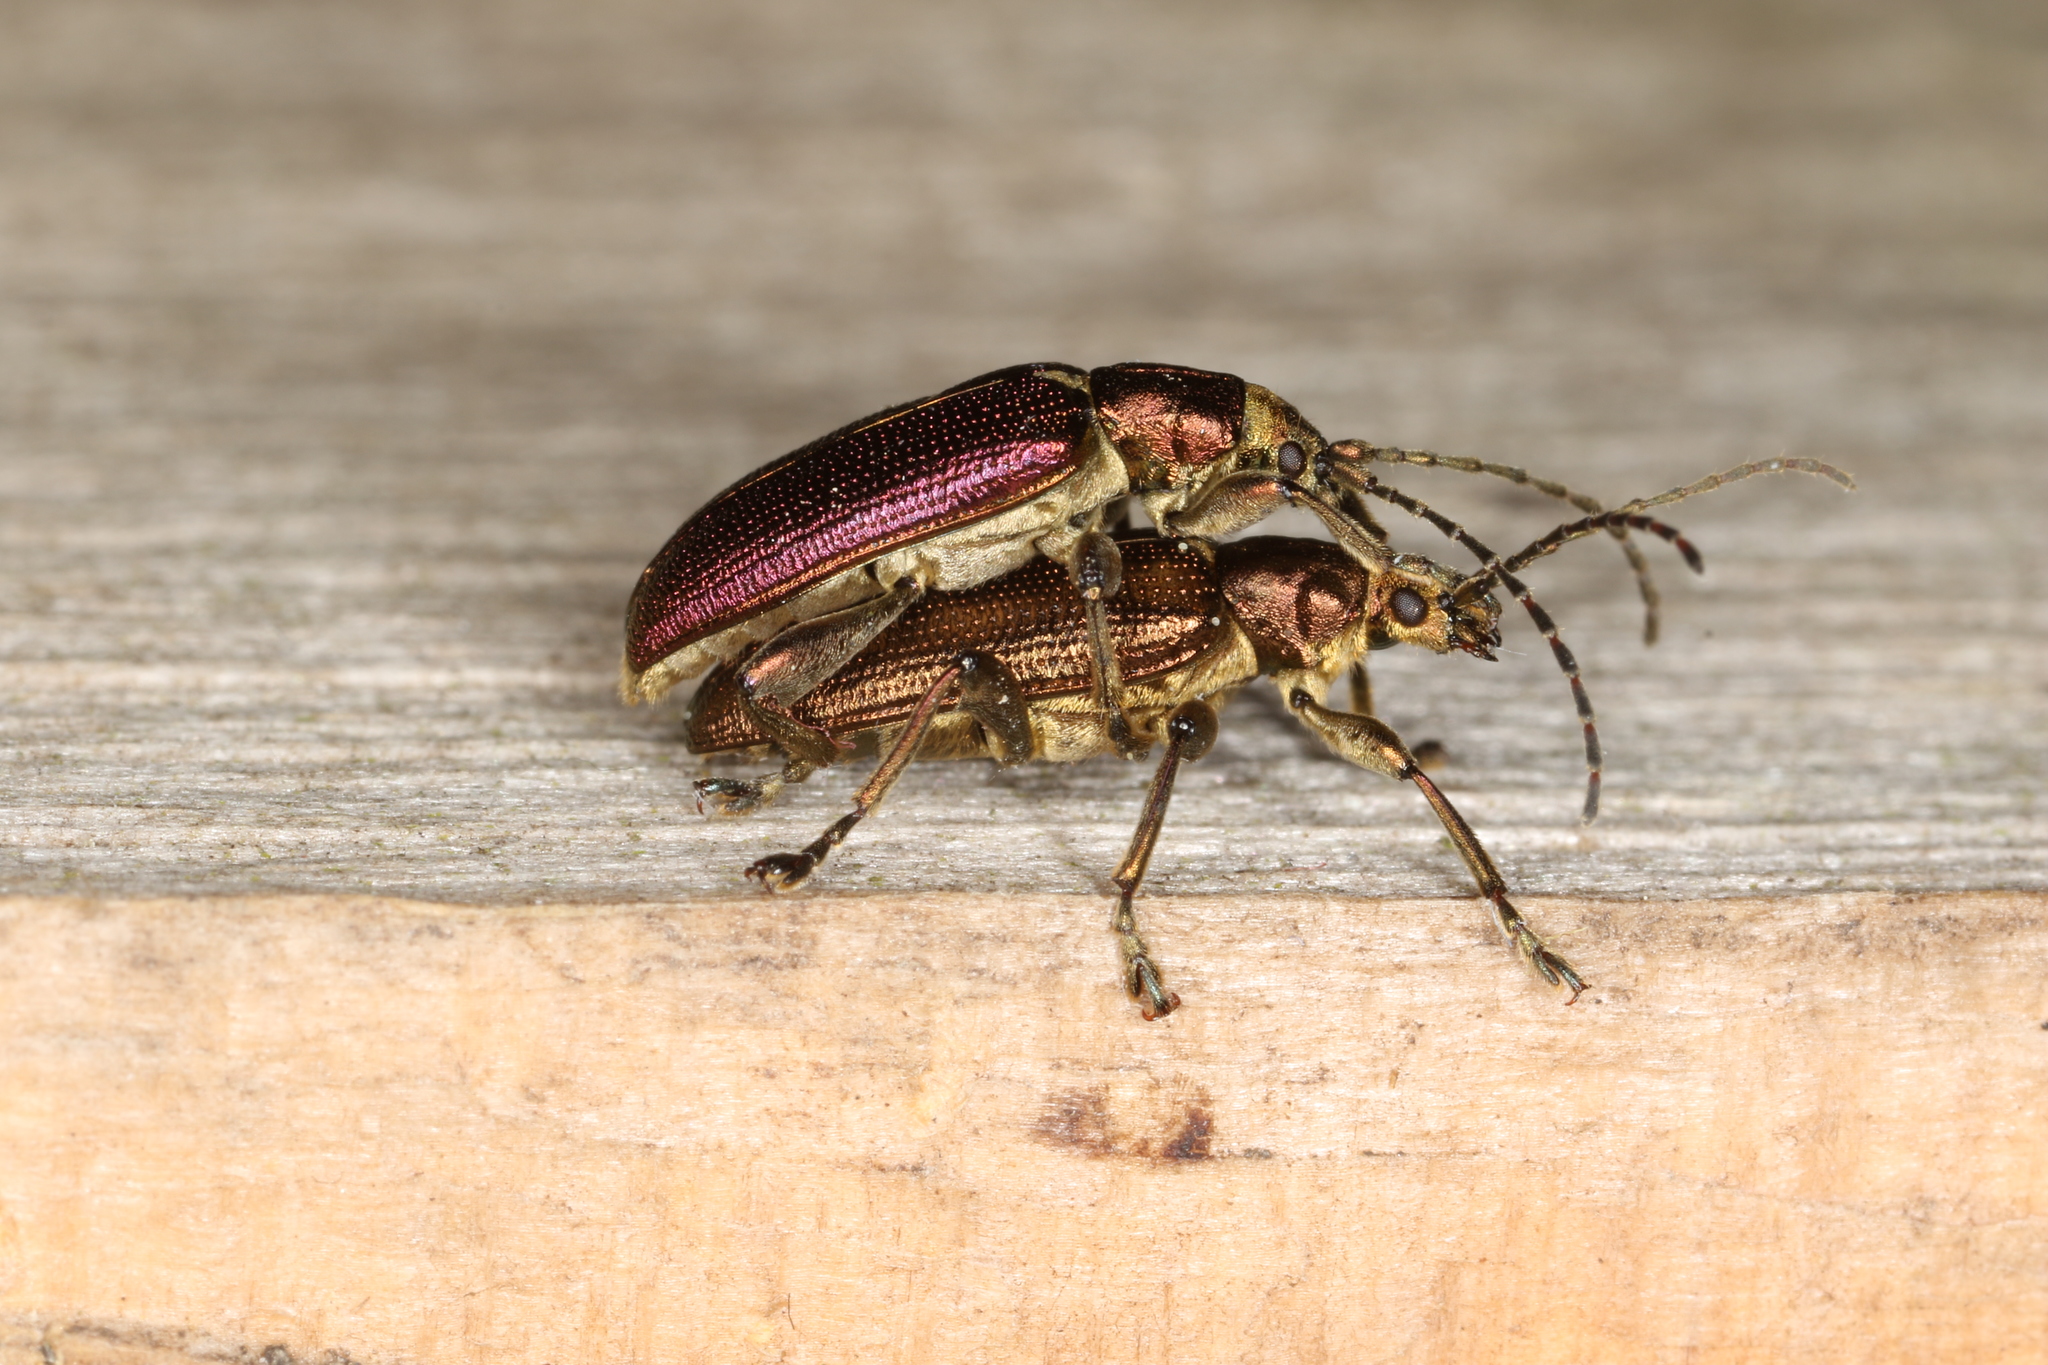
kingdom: Animalia
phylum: Arthropoda
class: Insecta
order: Coleoptera
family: Chrysomelidae
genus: Plateumaris
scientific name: Plateumaris sericea
